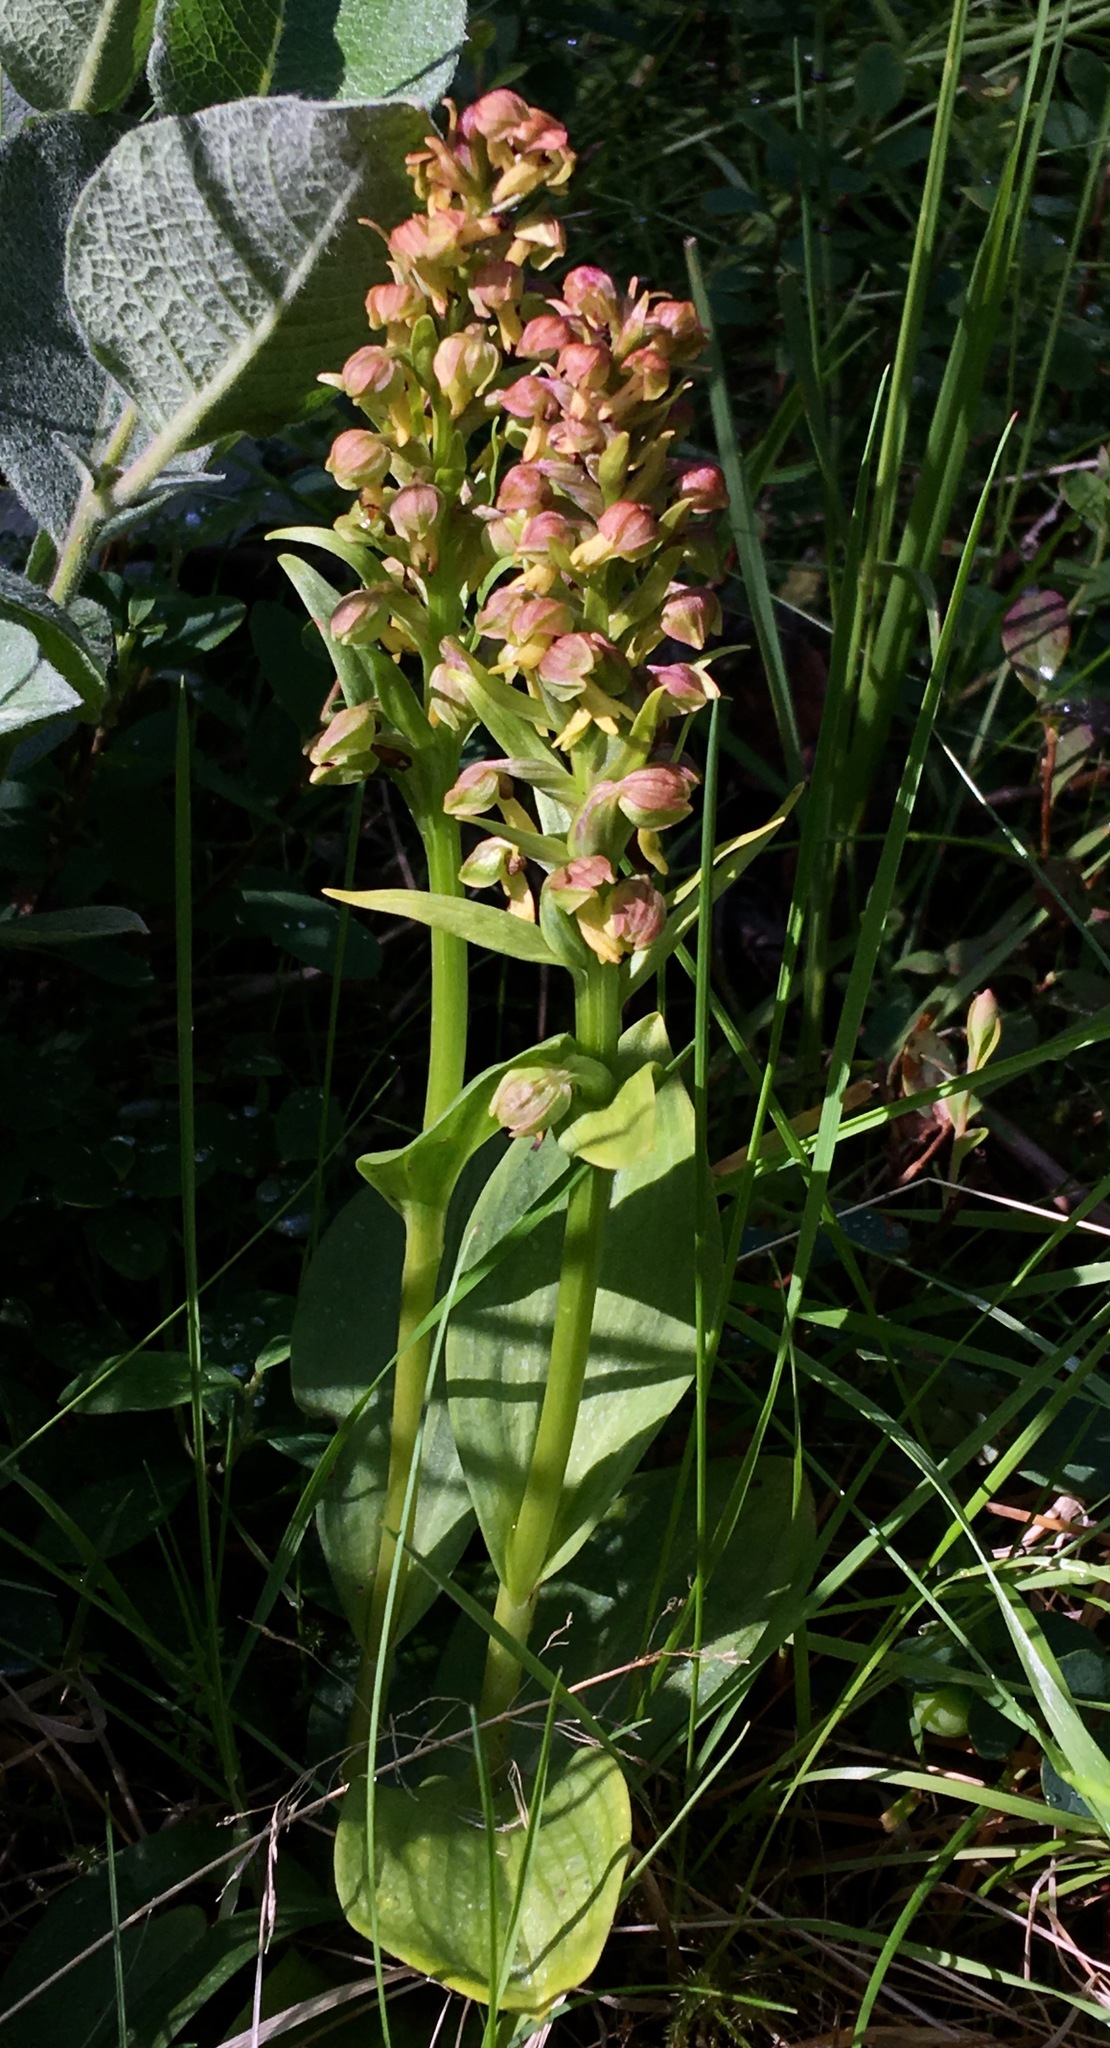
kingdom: Plantae
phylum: Tracheophyta
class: Liliopsida
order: Asparagales
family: Orchidaceae
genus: Dactylorhiza
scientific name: Dactylorhiza viridis
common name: Longbract frog orchid
